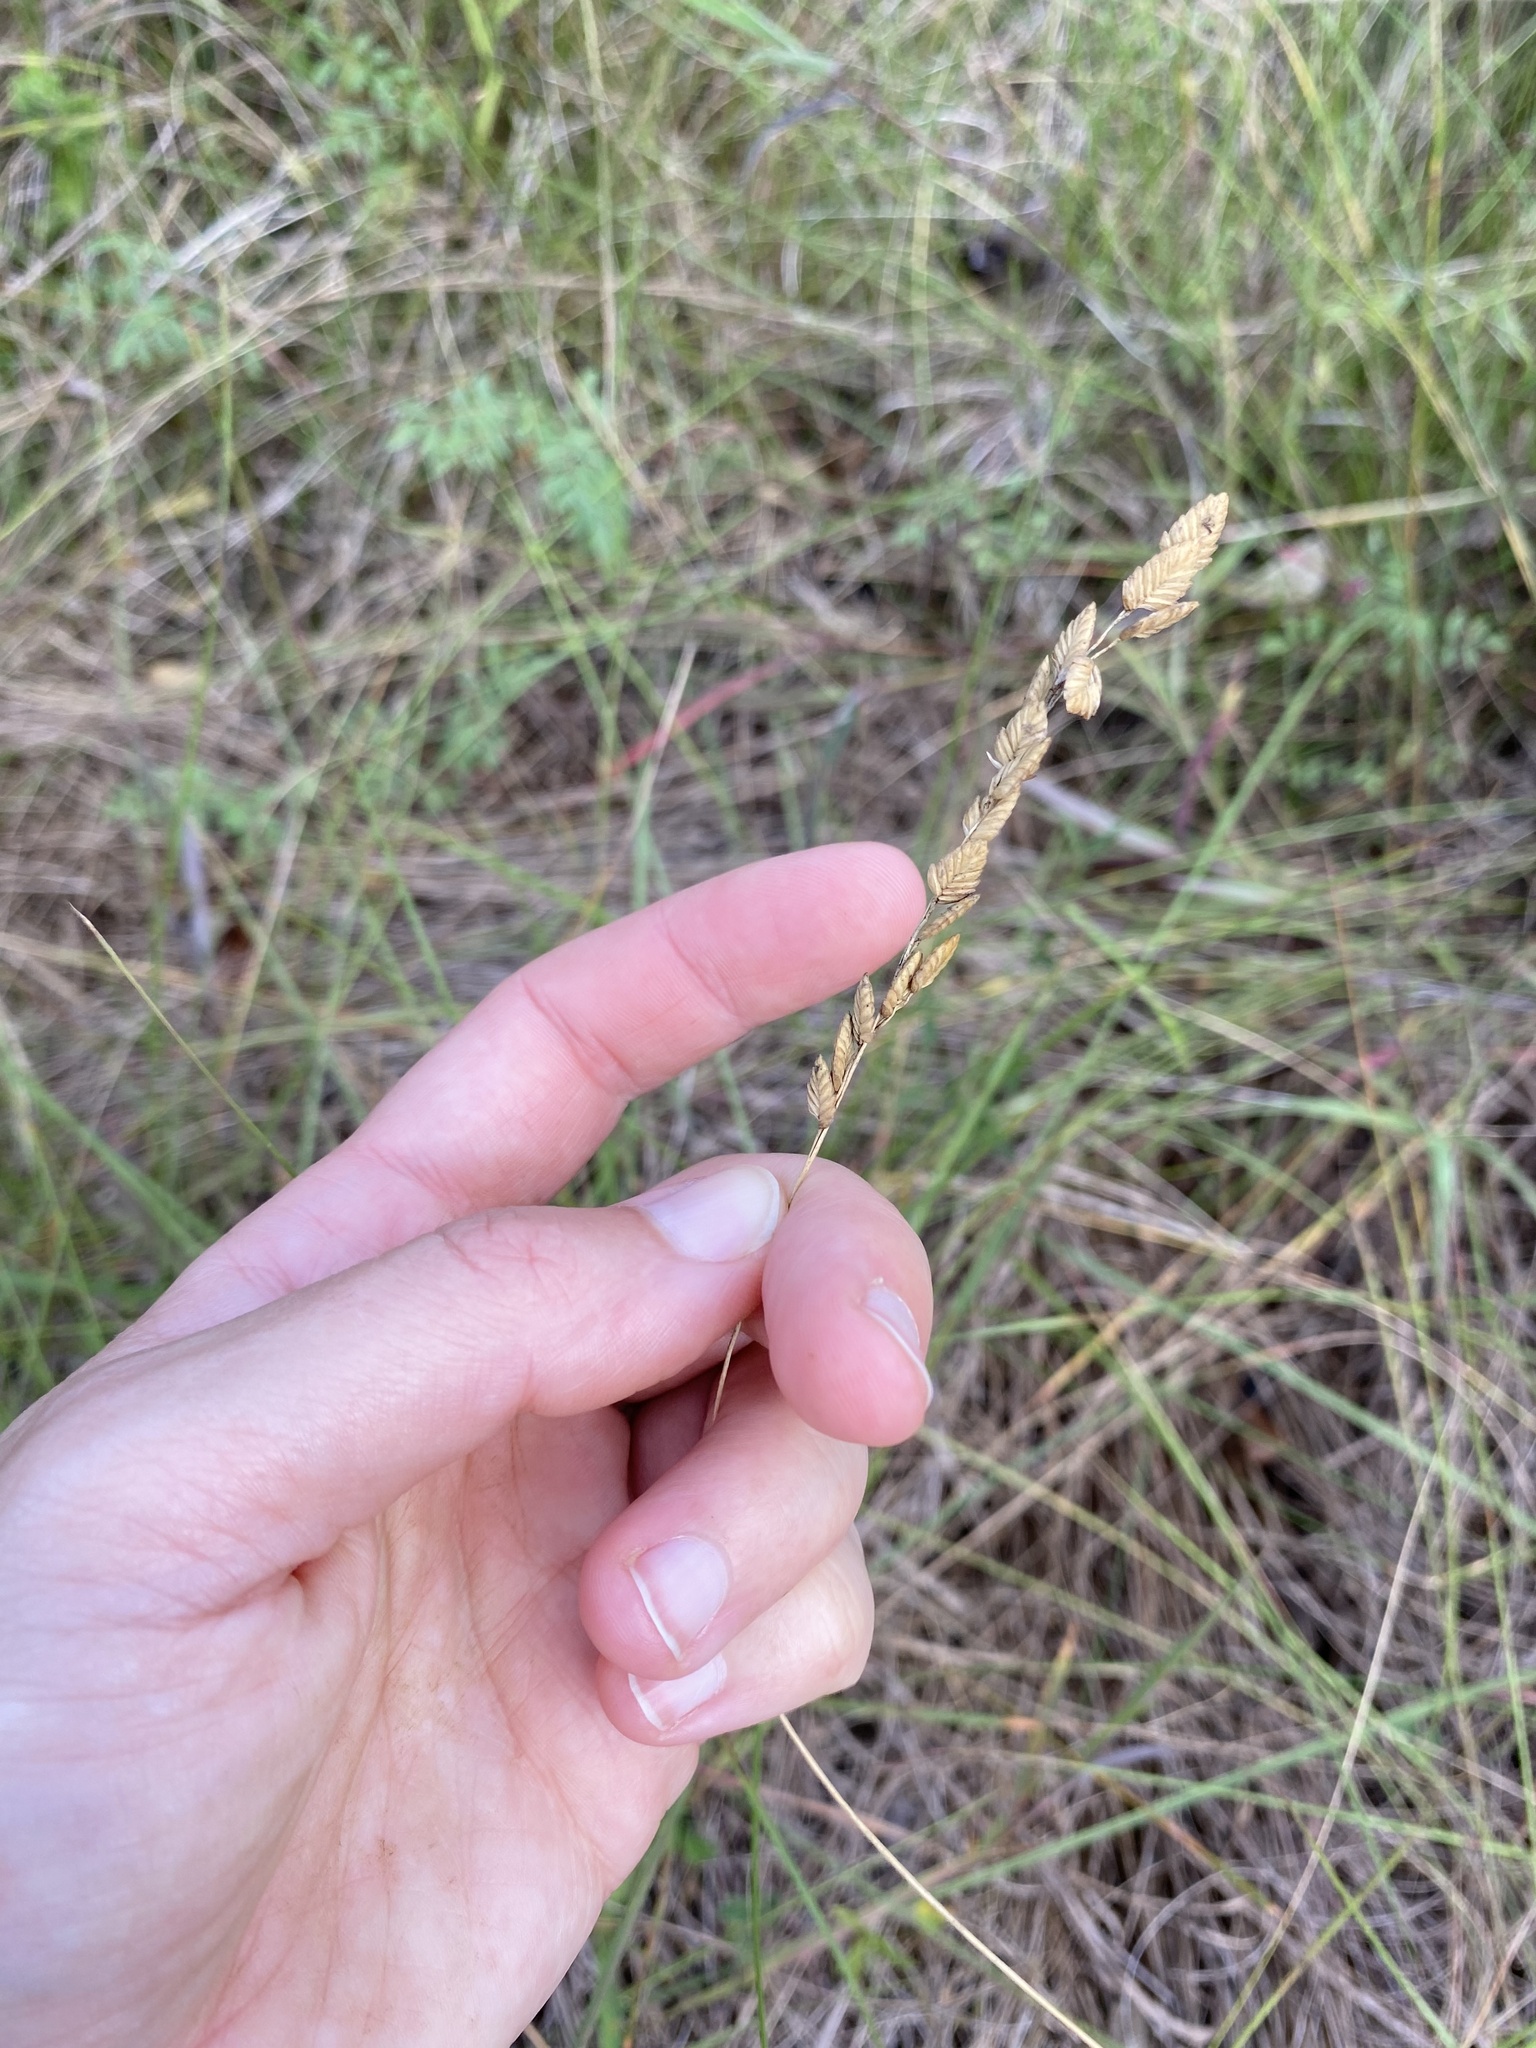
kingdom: Plantae
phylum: Tracheophyta
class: Liliopsida
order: Poales
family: Poaceae
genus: Eragrostis
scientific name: Eragrostis superba
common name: Wilman lovegrass
